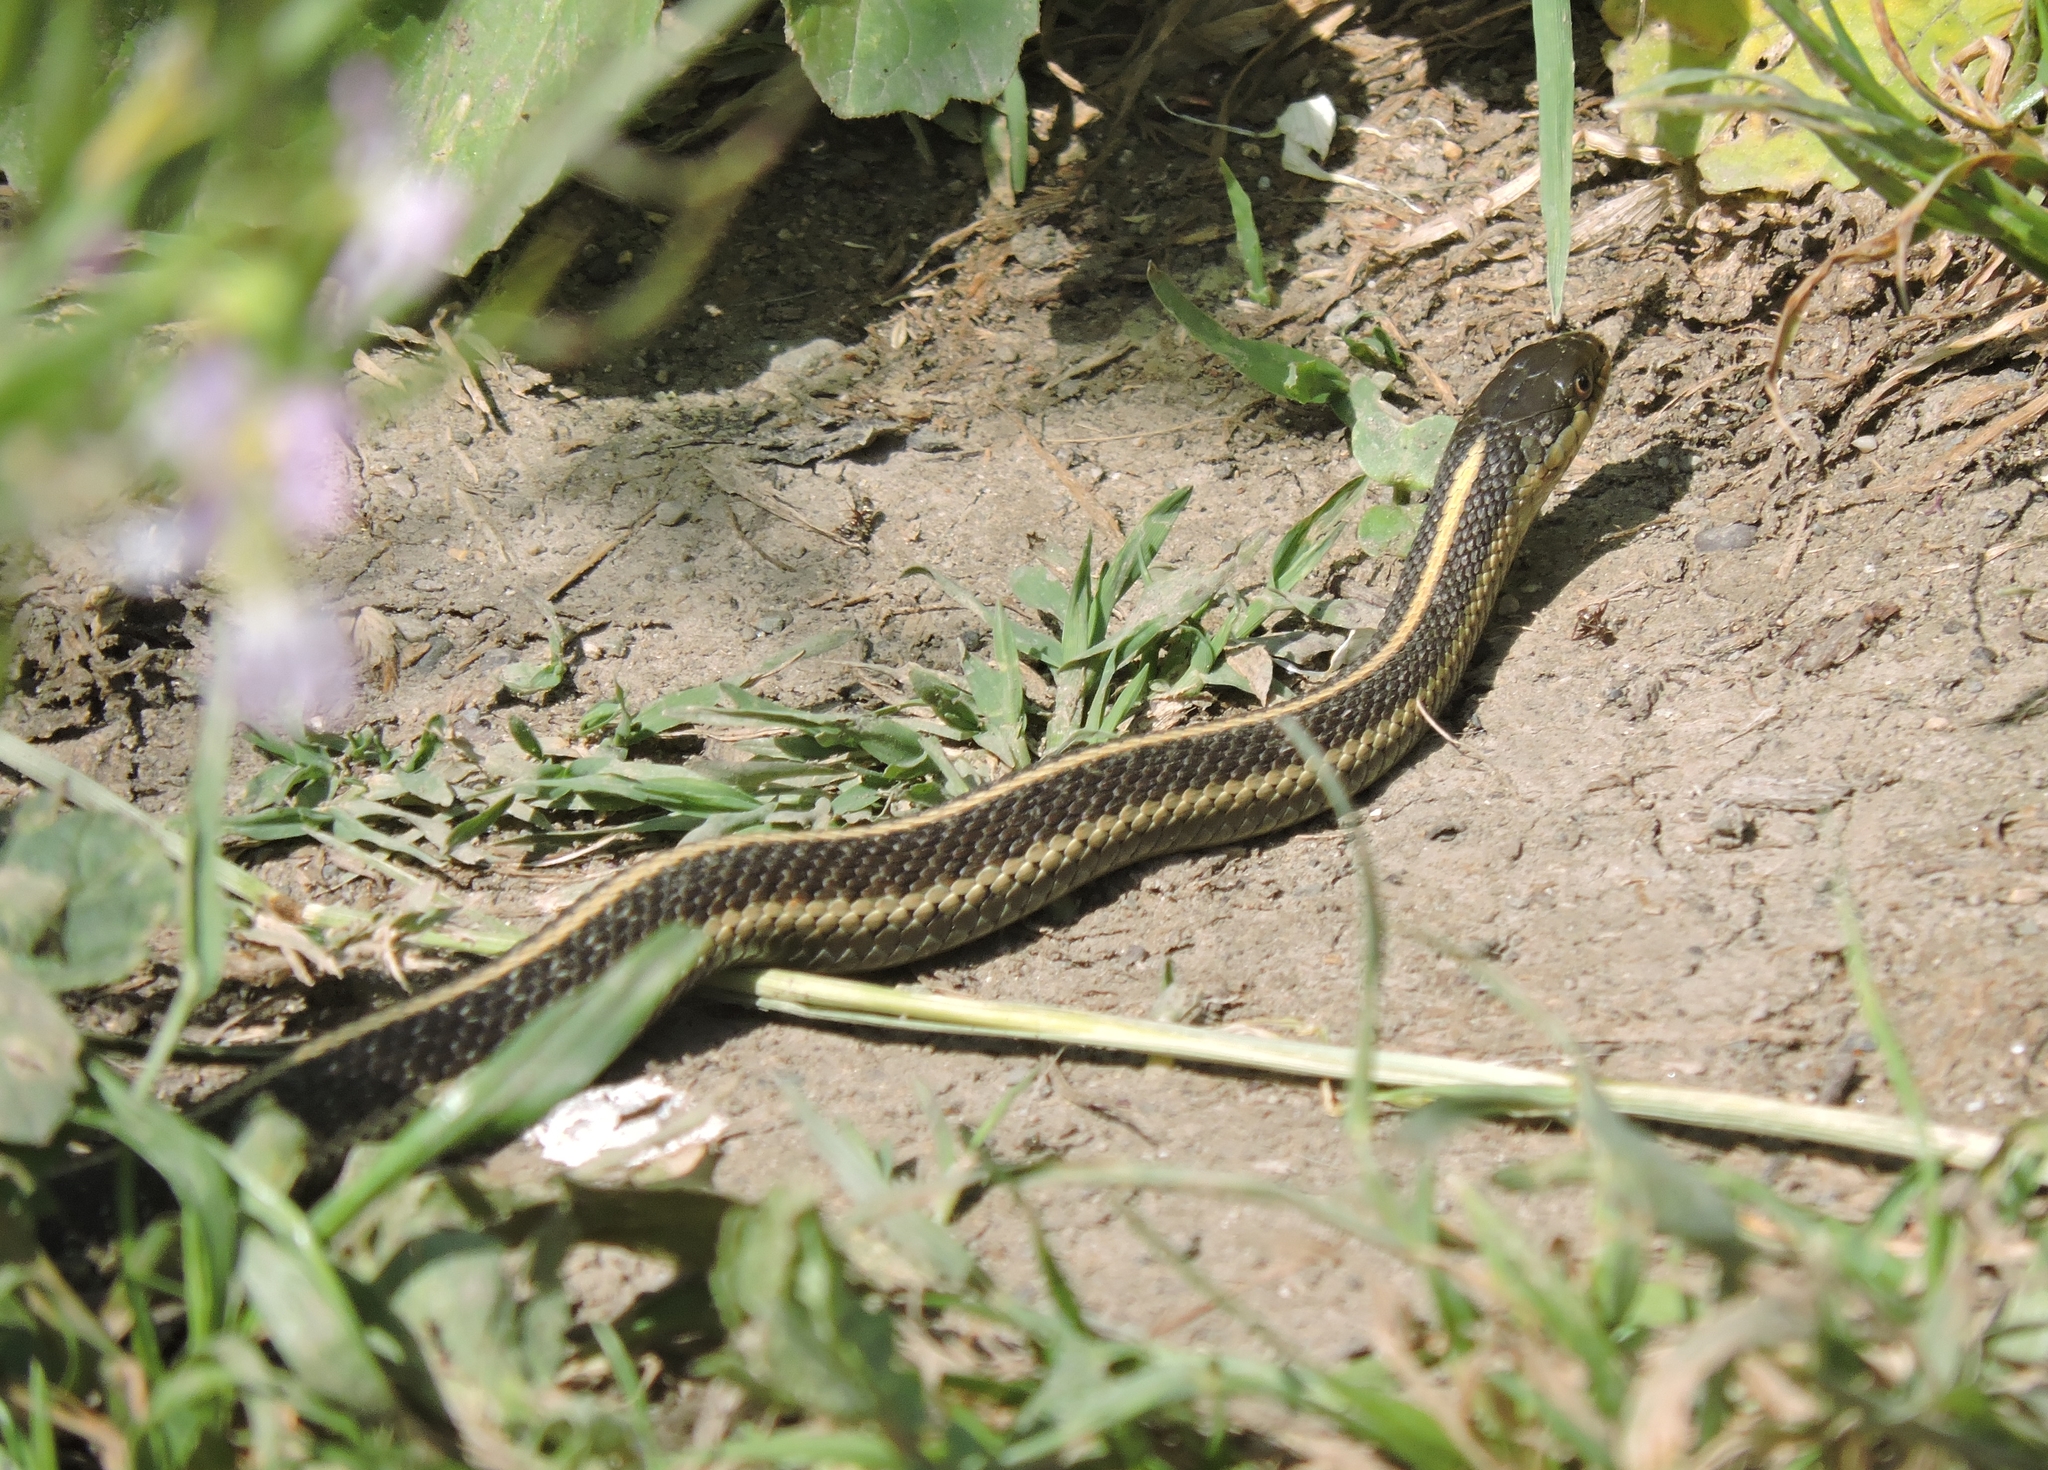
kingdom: Animalia
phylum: Chordata
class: Squamata
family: Colubridae
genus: Thamnophis
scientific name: Thamnophis elegans
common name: Western terrestrial garter snake
